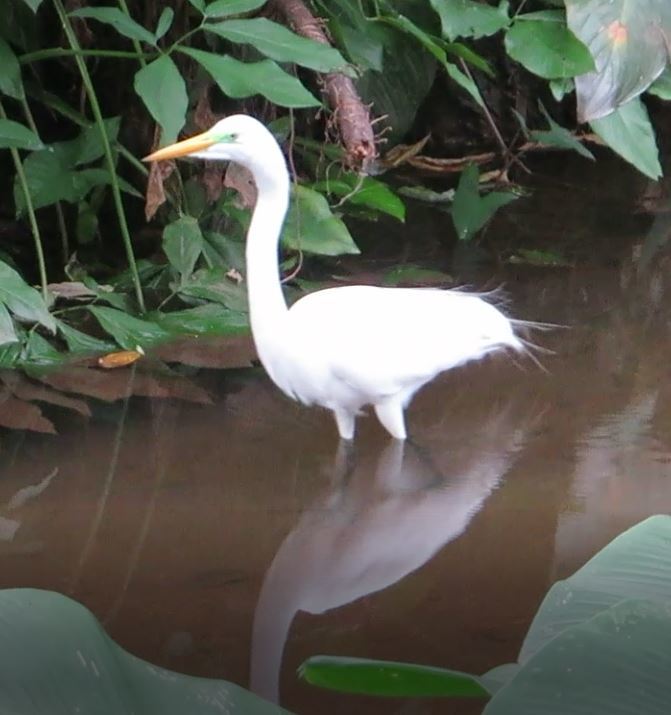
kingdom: Animalia
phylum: Chordata
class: Aves
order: Pelecaniformes
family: Ardeidae
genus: Ardea
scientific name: Ardea alba
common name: Great egret
